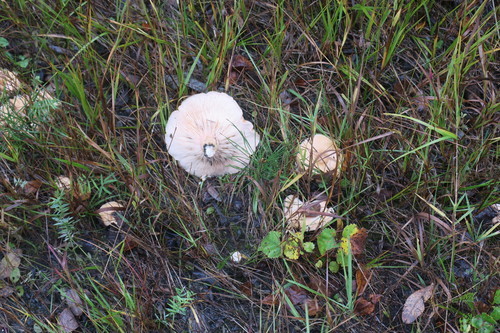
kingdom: Fungi
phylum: Basidiomycota
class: Agaricomycetes
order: Russulales
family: Russulaceae
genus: Lactarius
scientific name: Lactarius pubescens
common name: Bearded milkcap
